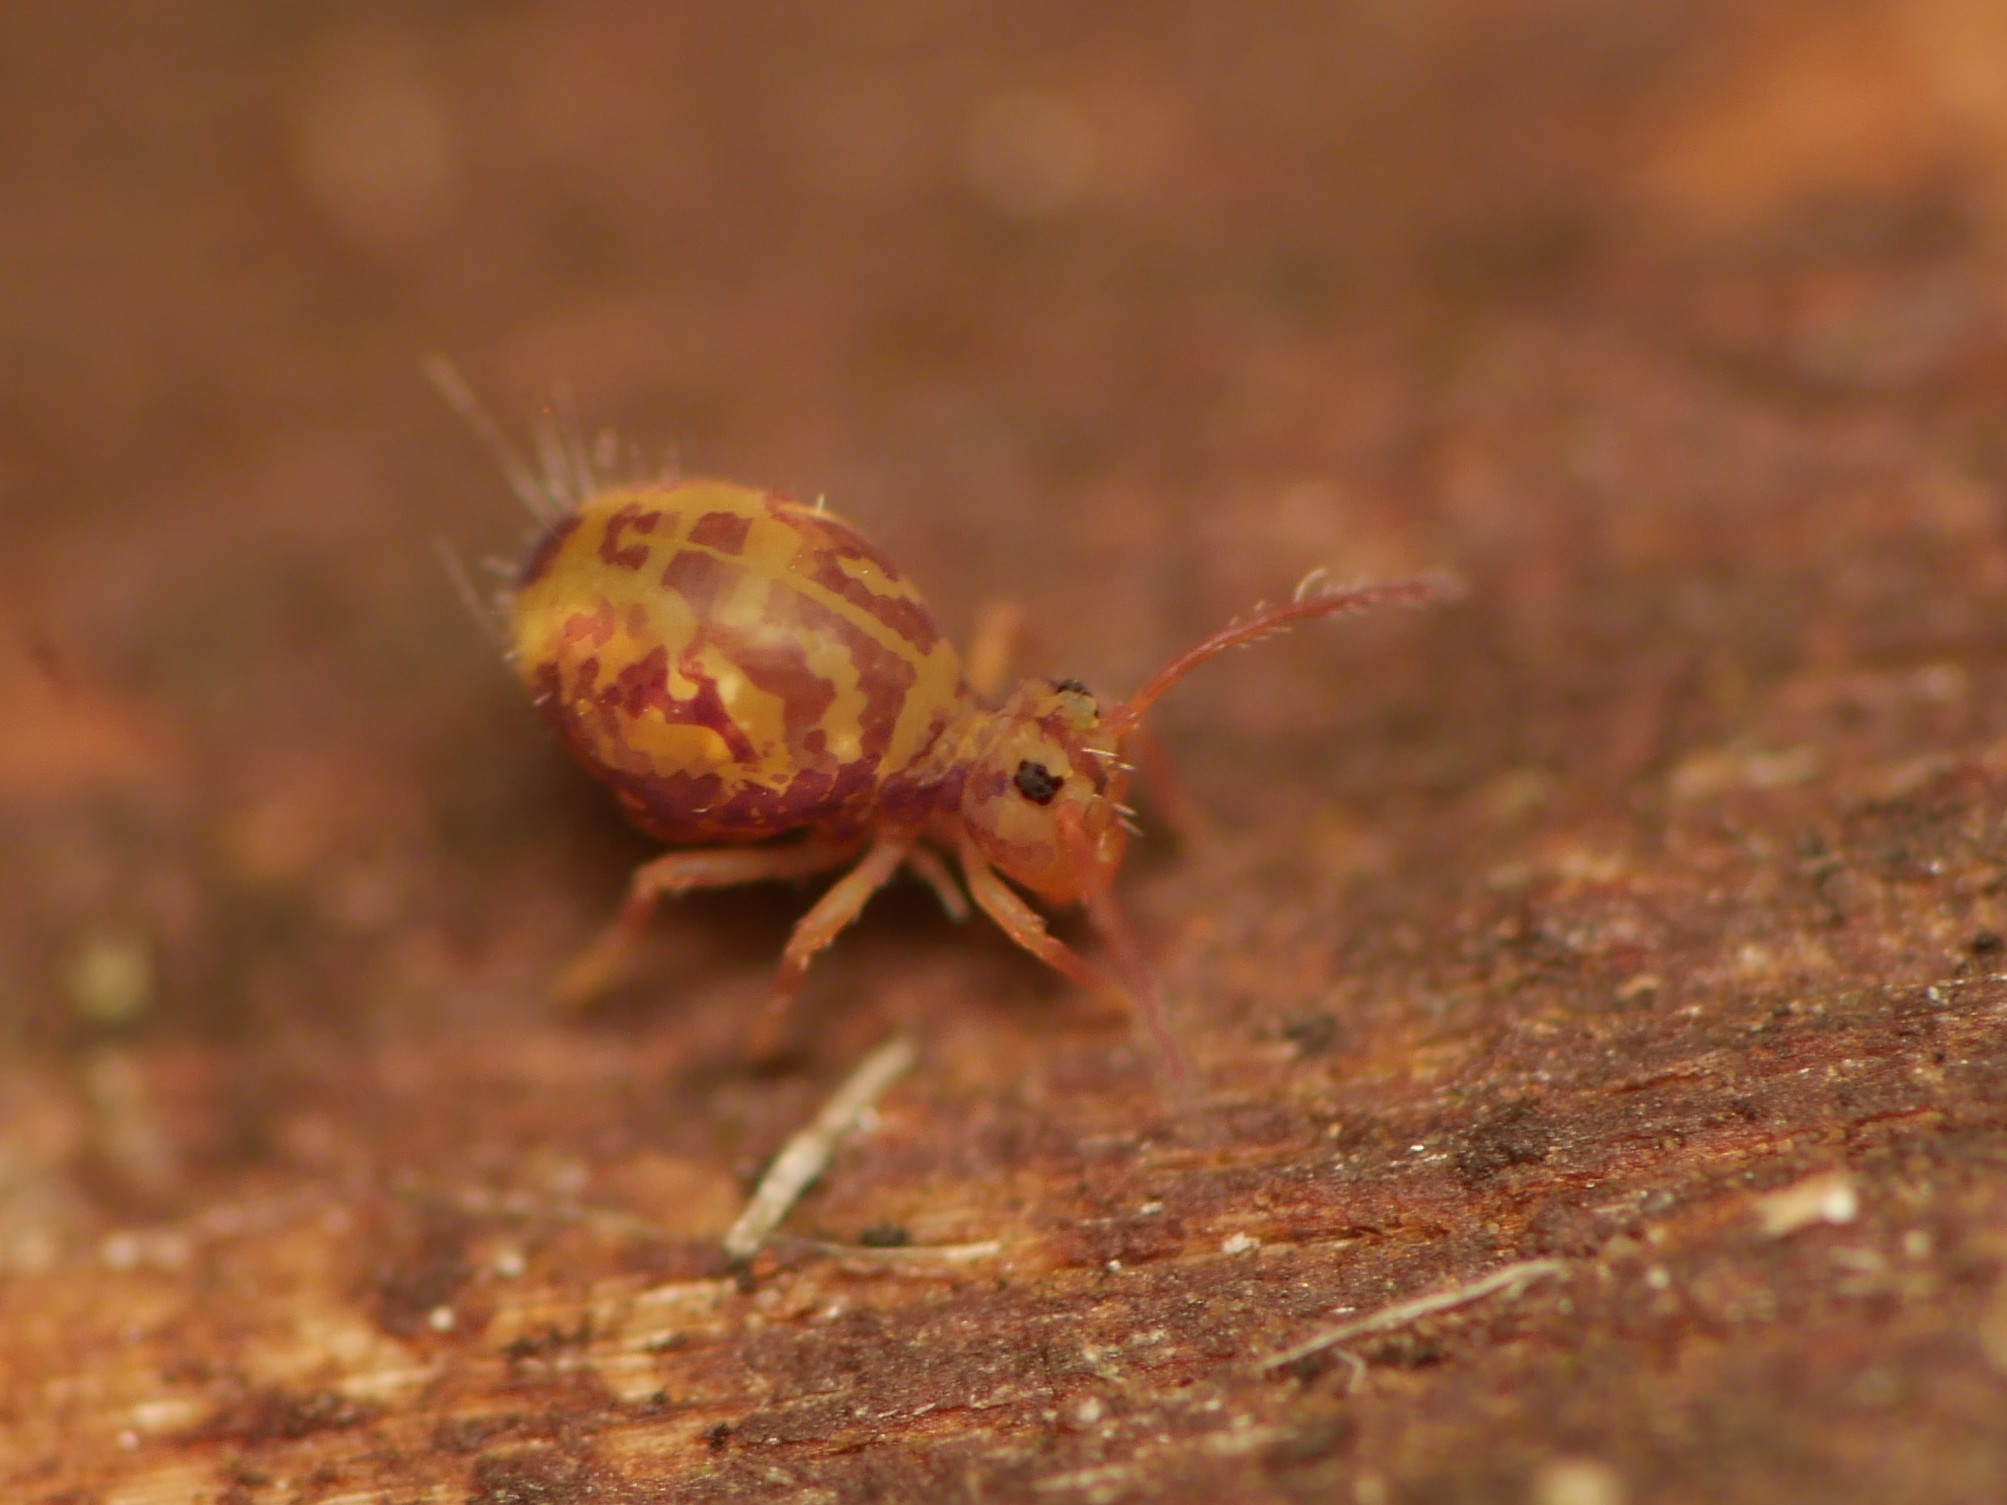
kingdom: Animalia
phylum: Arthropoda
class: Collembola
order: Symphypleona
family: Dicyrtomidae
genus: Dicyrtomina
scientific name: Dicyrtomina ornata
